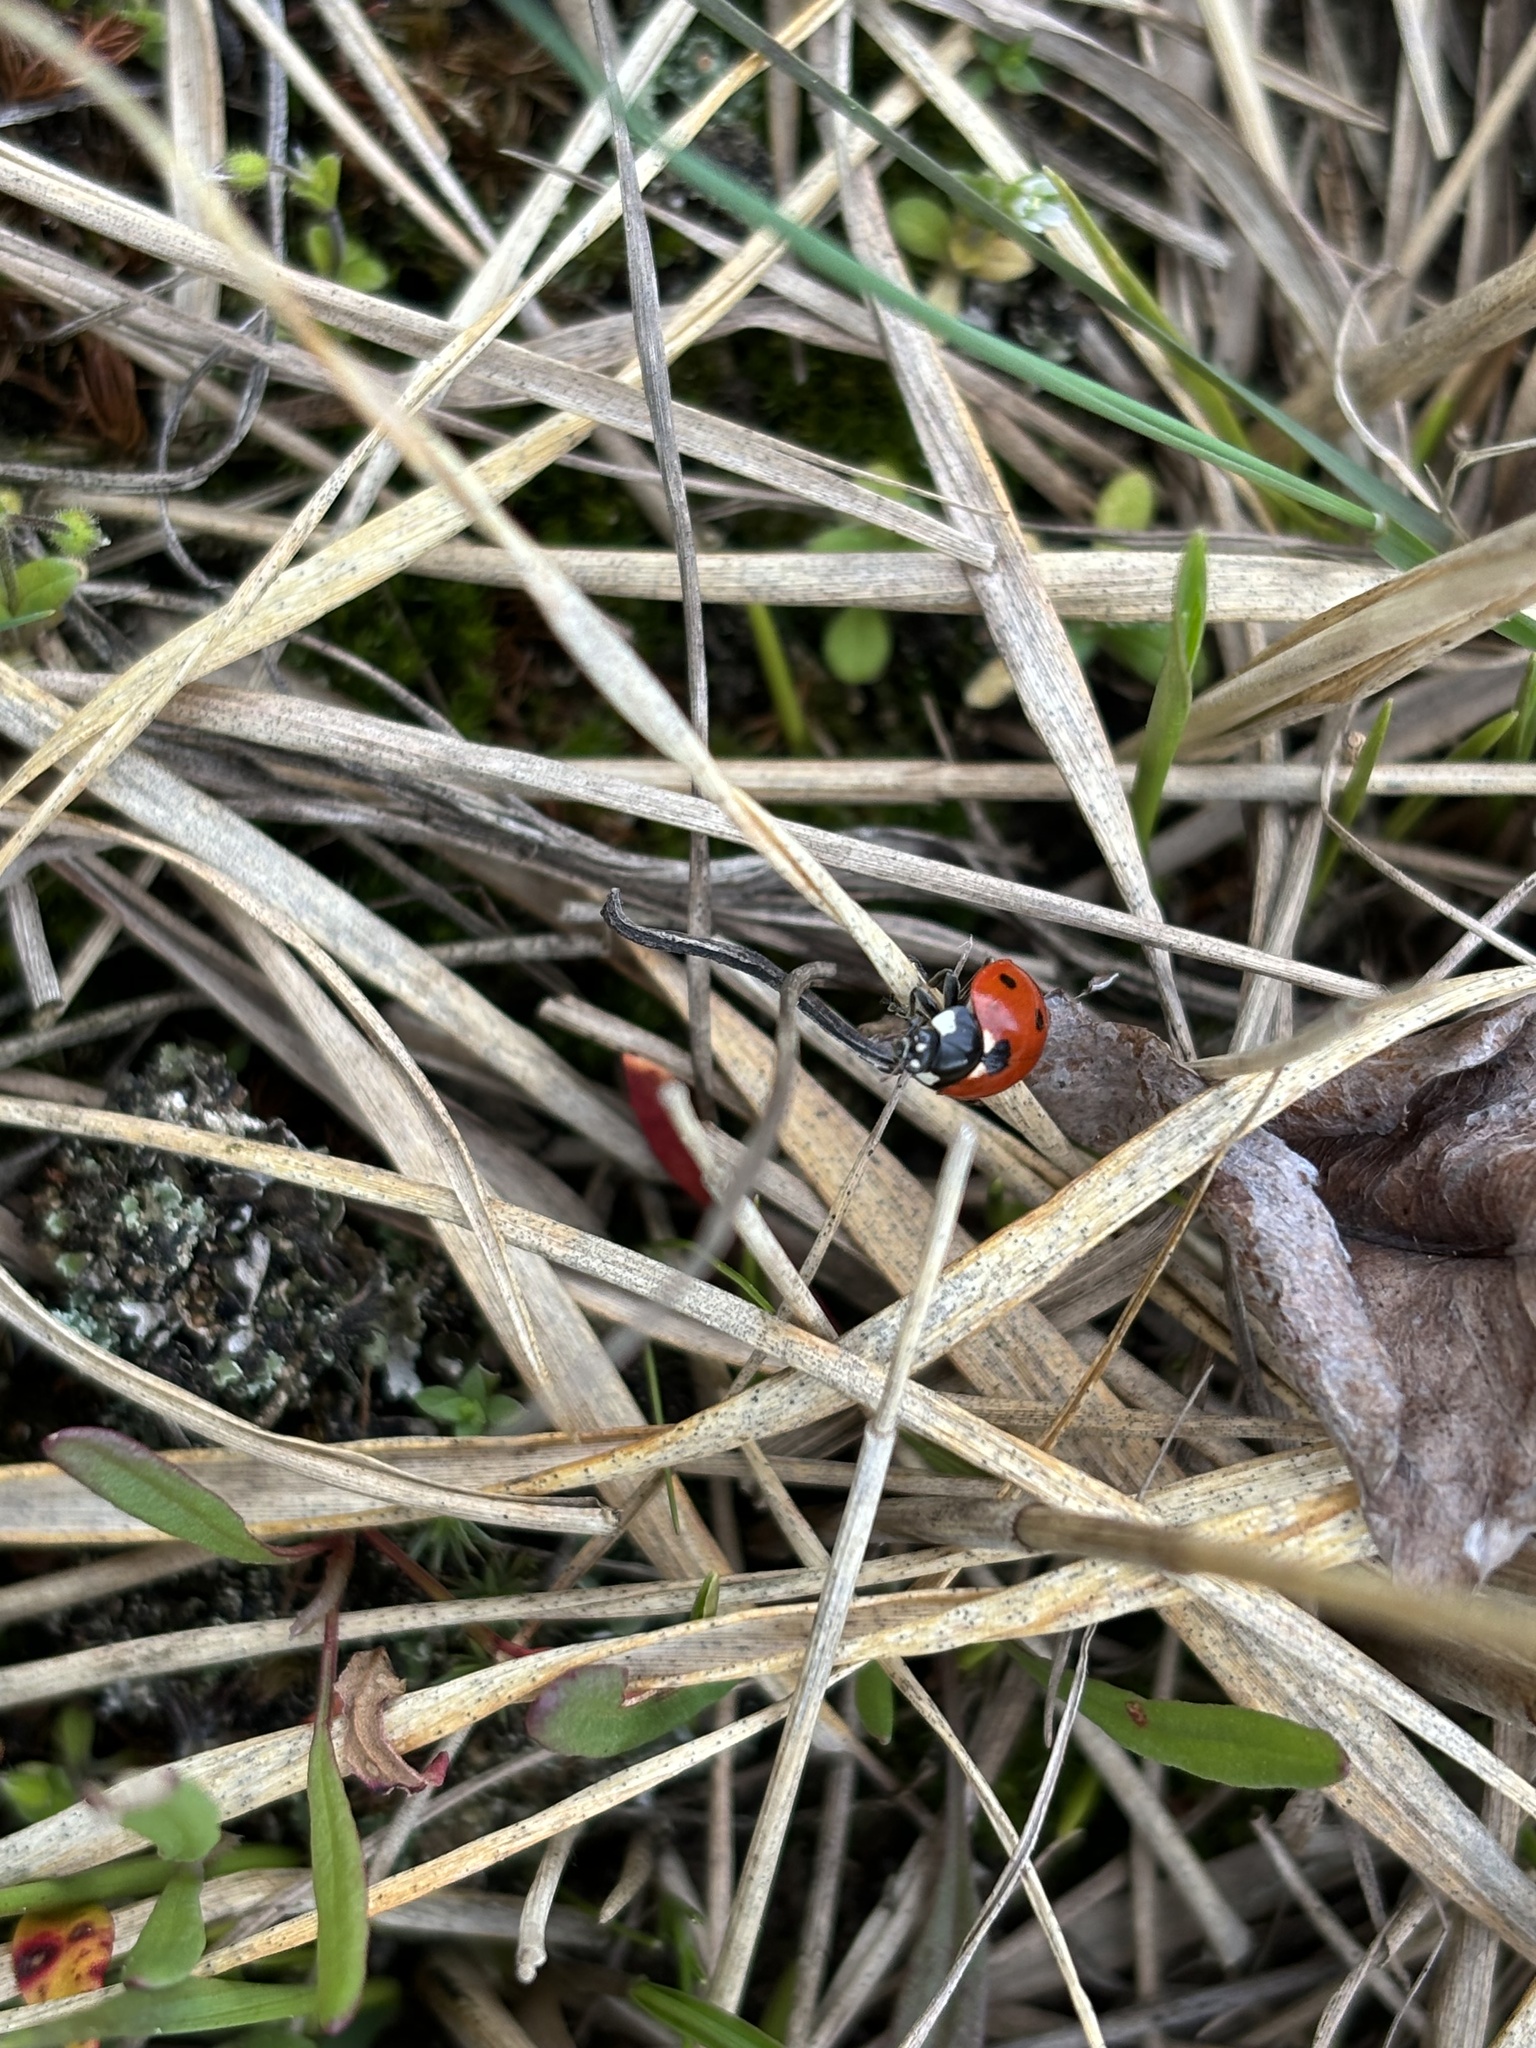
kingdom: Animalia
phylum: Arthropoda
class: Insecta
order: Coleoptera
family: Coccinellidae
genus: Coccinella
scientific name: Coccinella septempunctata
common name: Sevenspotted lady beetle
